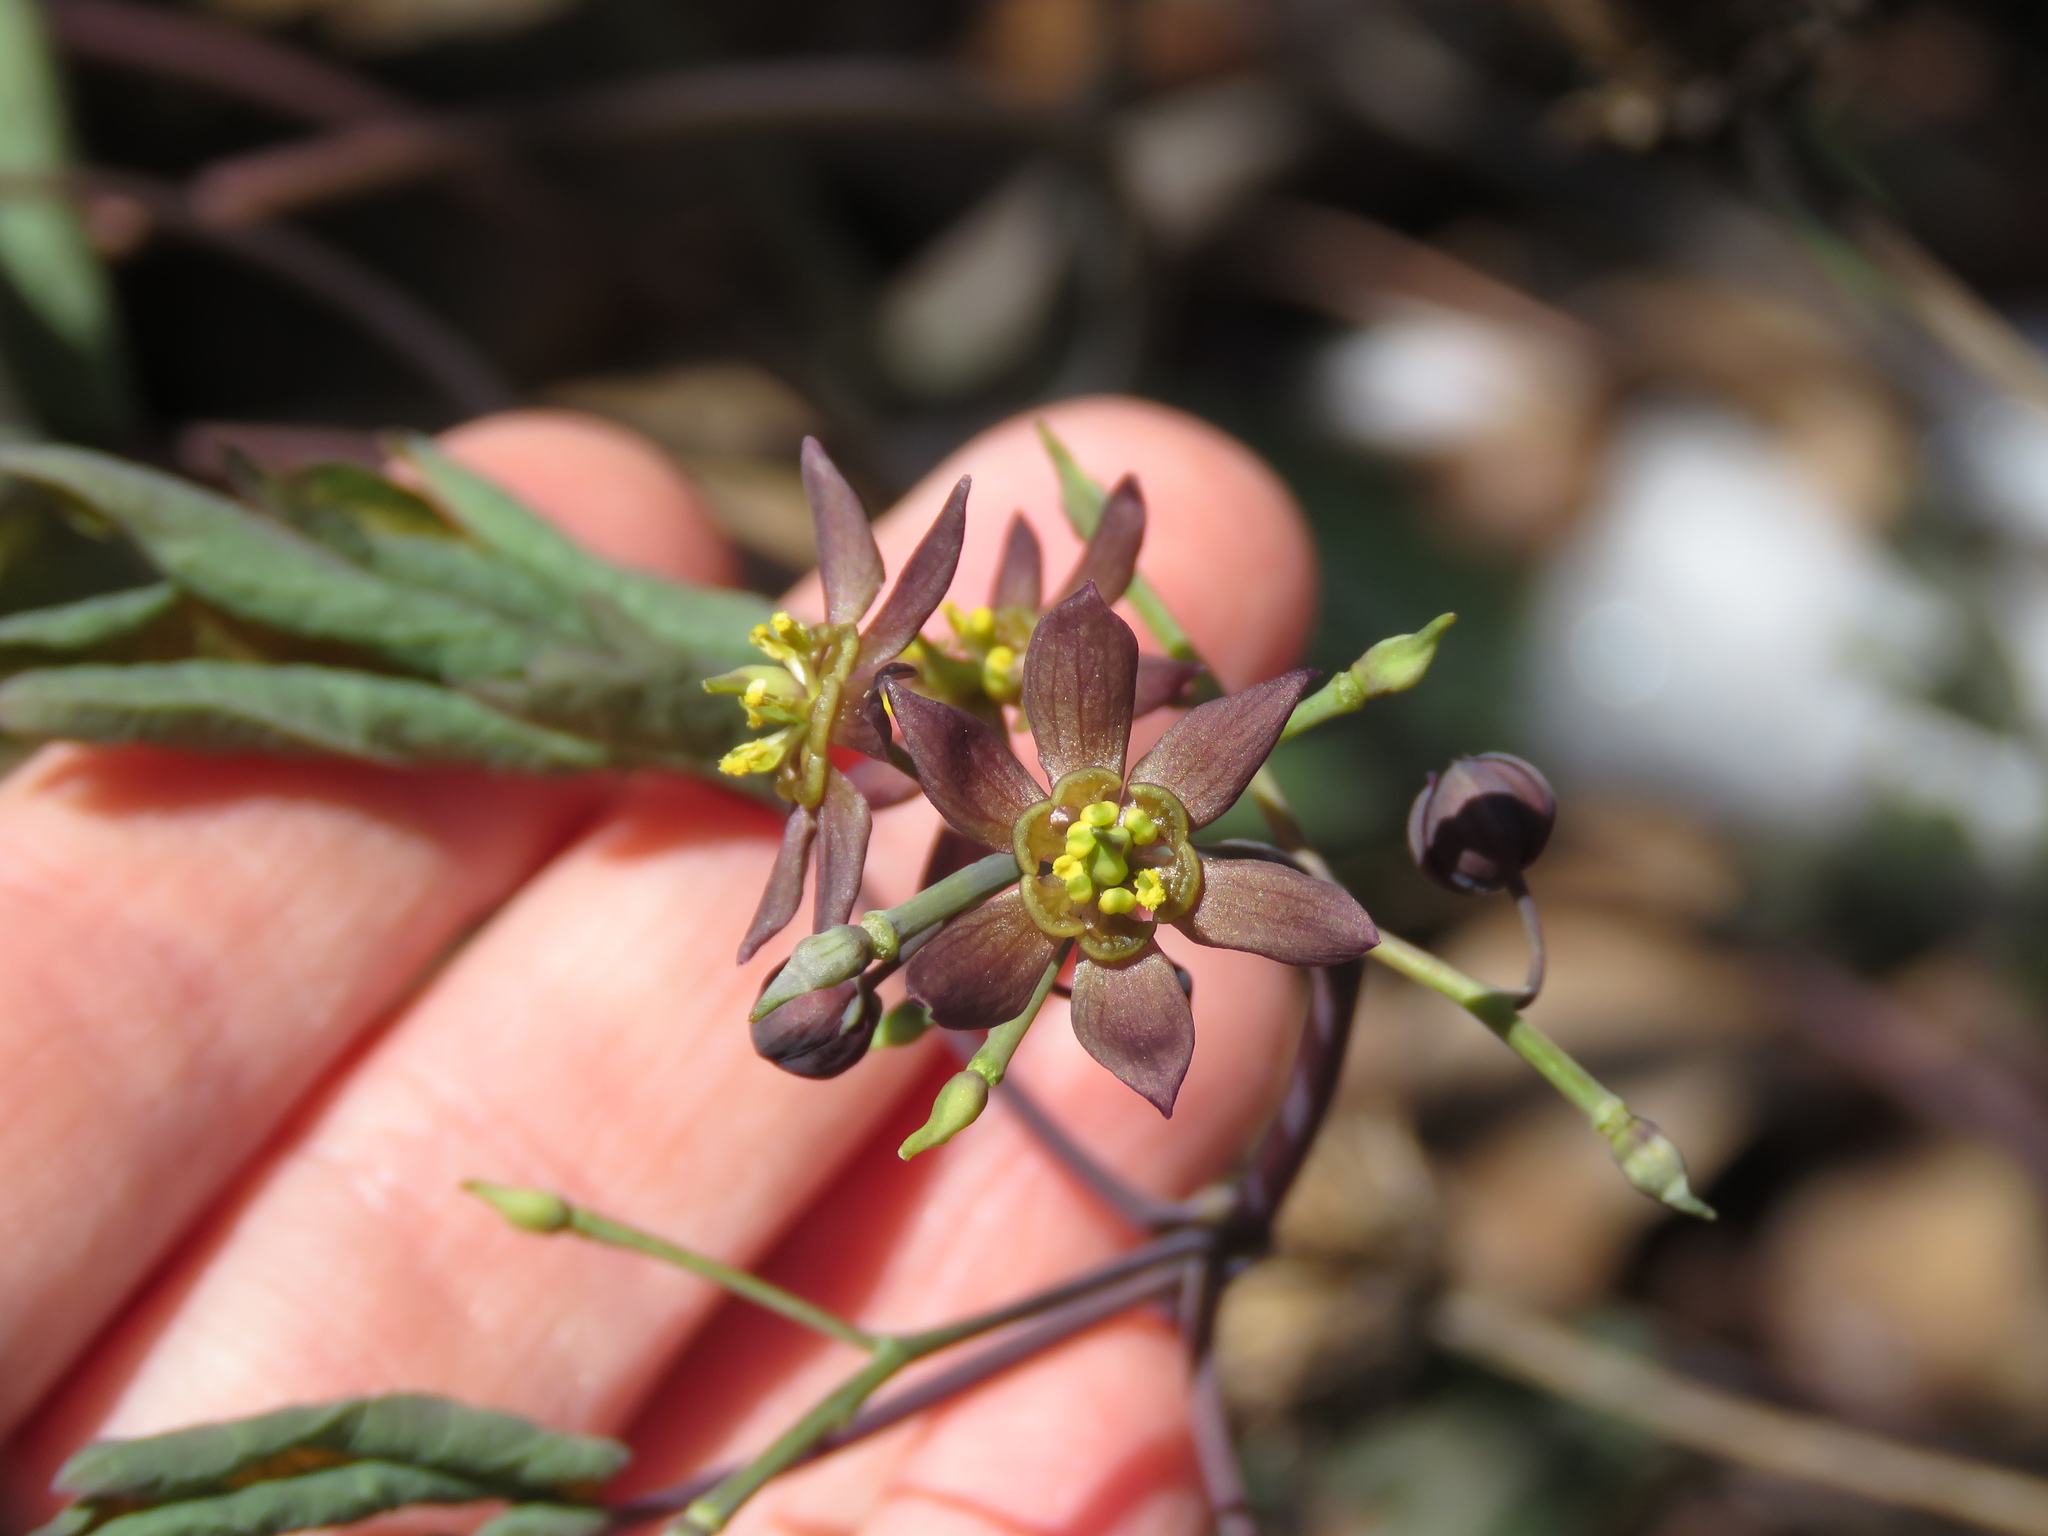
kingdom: Plantae
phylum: Tracheophyta
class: Magnoliopsida
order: Ranunculales
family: Berberidaceae
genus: Caulophyllum
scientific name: Caulophyllum giganteum
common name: Blue cohosh
